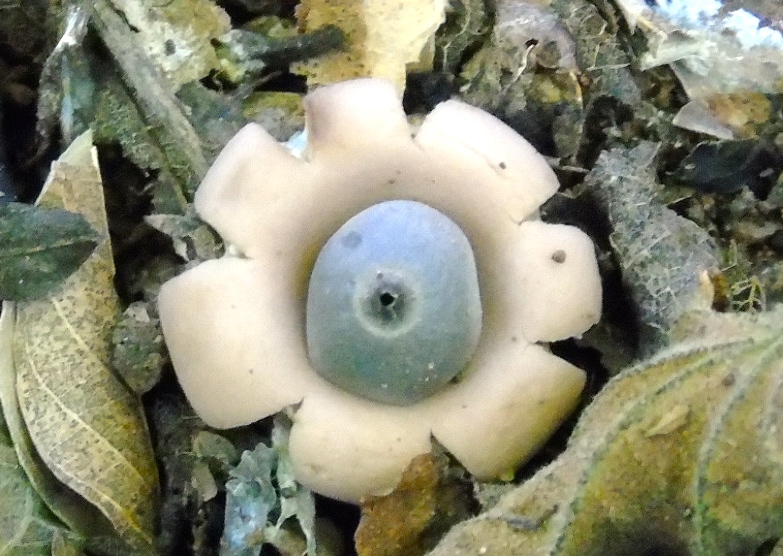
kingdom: Fungi
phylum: Basidiomycota
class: Agaricomycetes
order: Geastrales
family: Geastraceae
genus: Geastrum
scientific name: Geastrum
